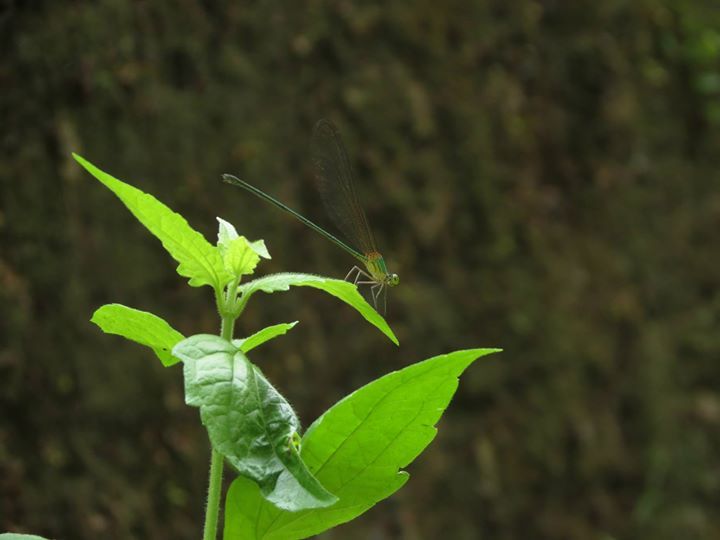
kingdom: Animalia
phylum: Arthropoda
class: Insecta
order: Odonata
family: Calopterygidae
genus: Vestalis
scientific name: Vestalis gracilis
